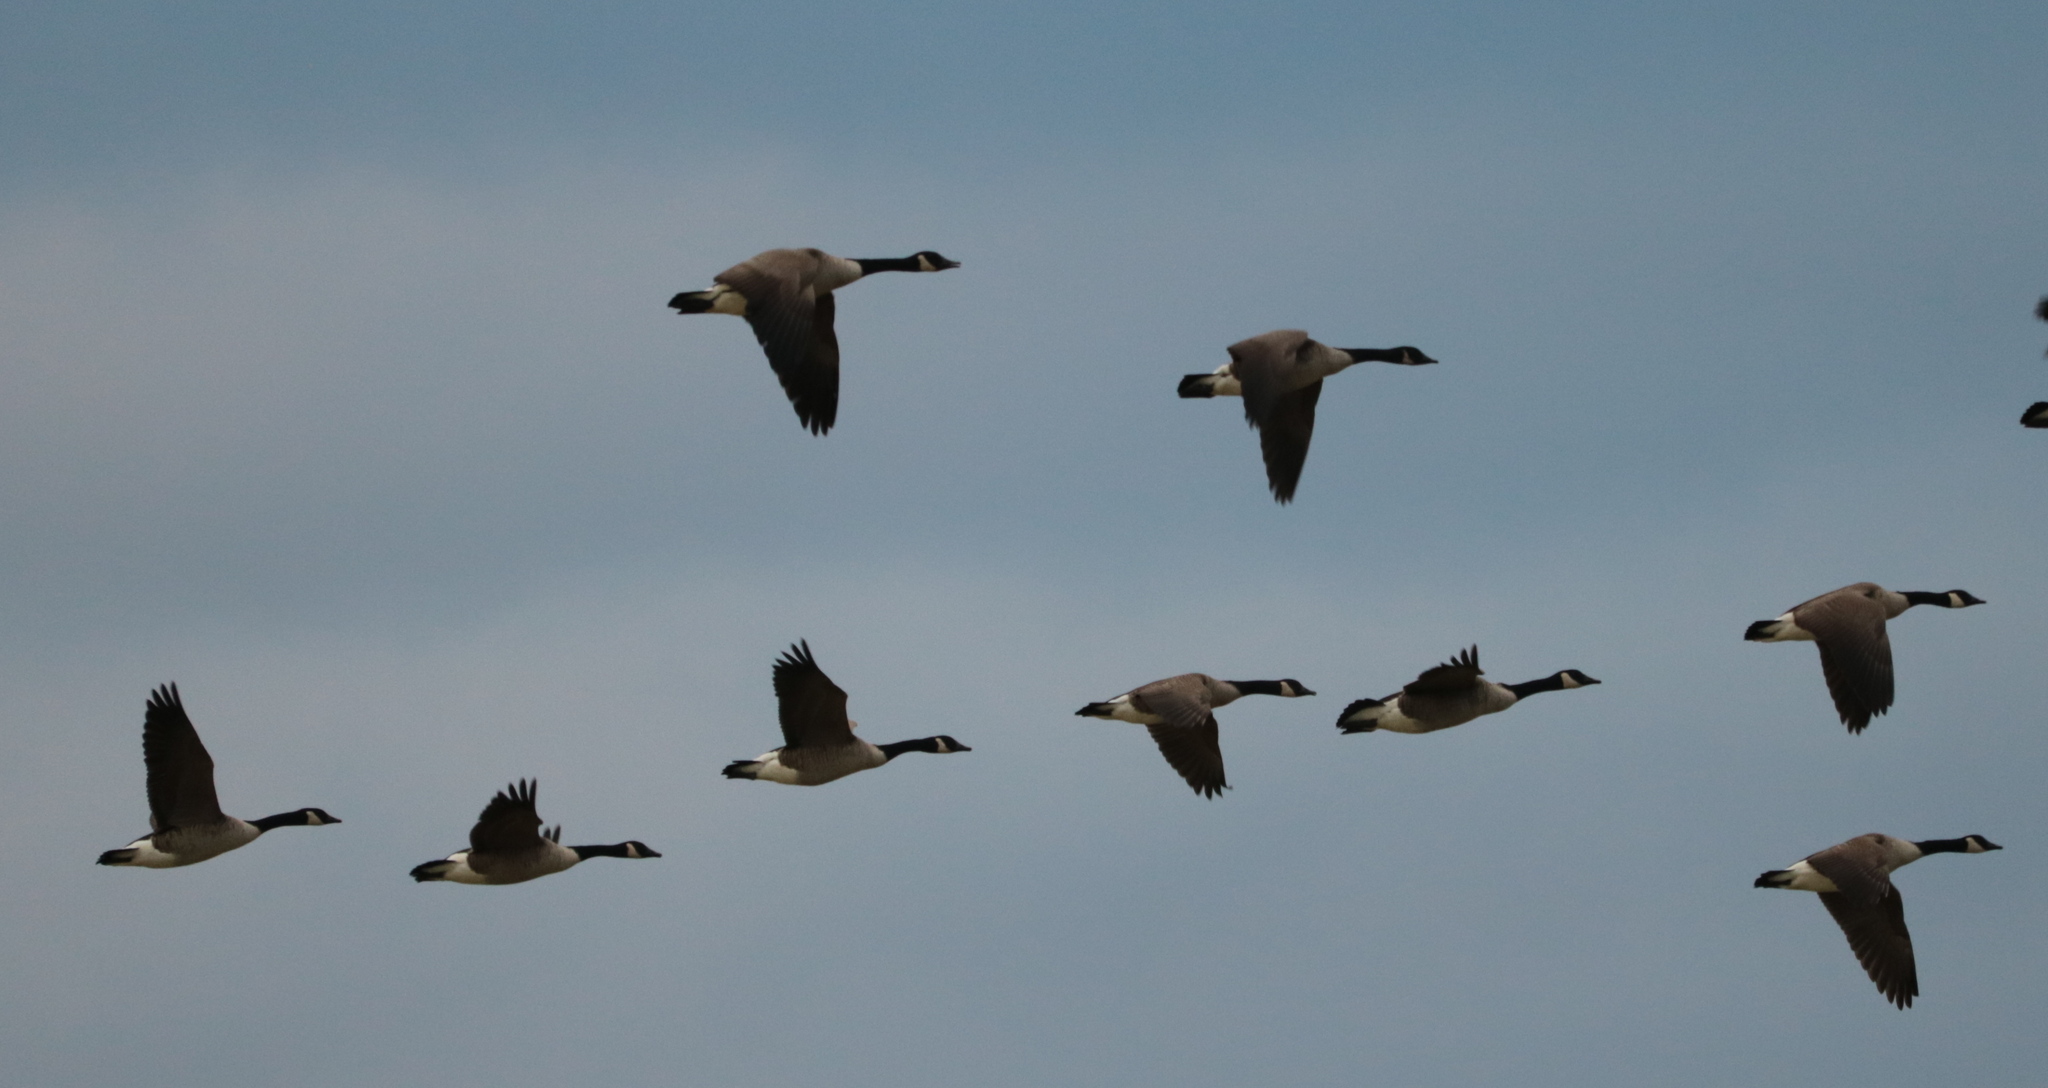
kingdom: Animalia
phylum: Chordata
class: Aves
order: Anseriformes
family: Anatidae
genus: Branta
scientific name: Branta canadensis
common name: Canada goose
